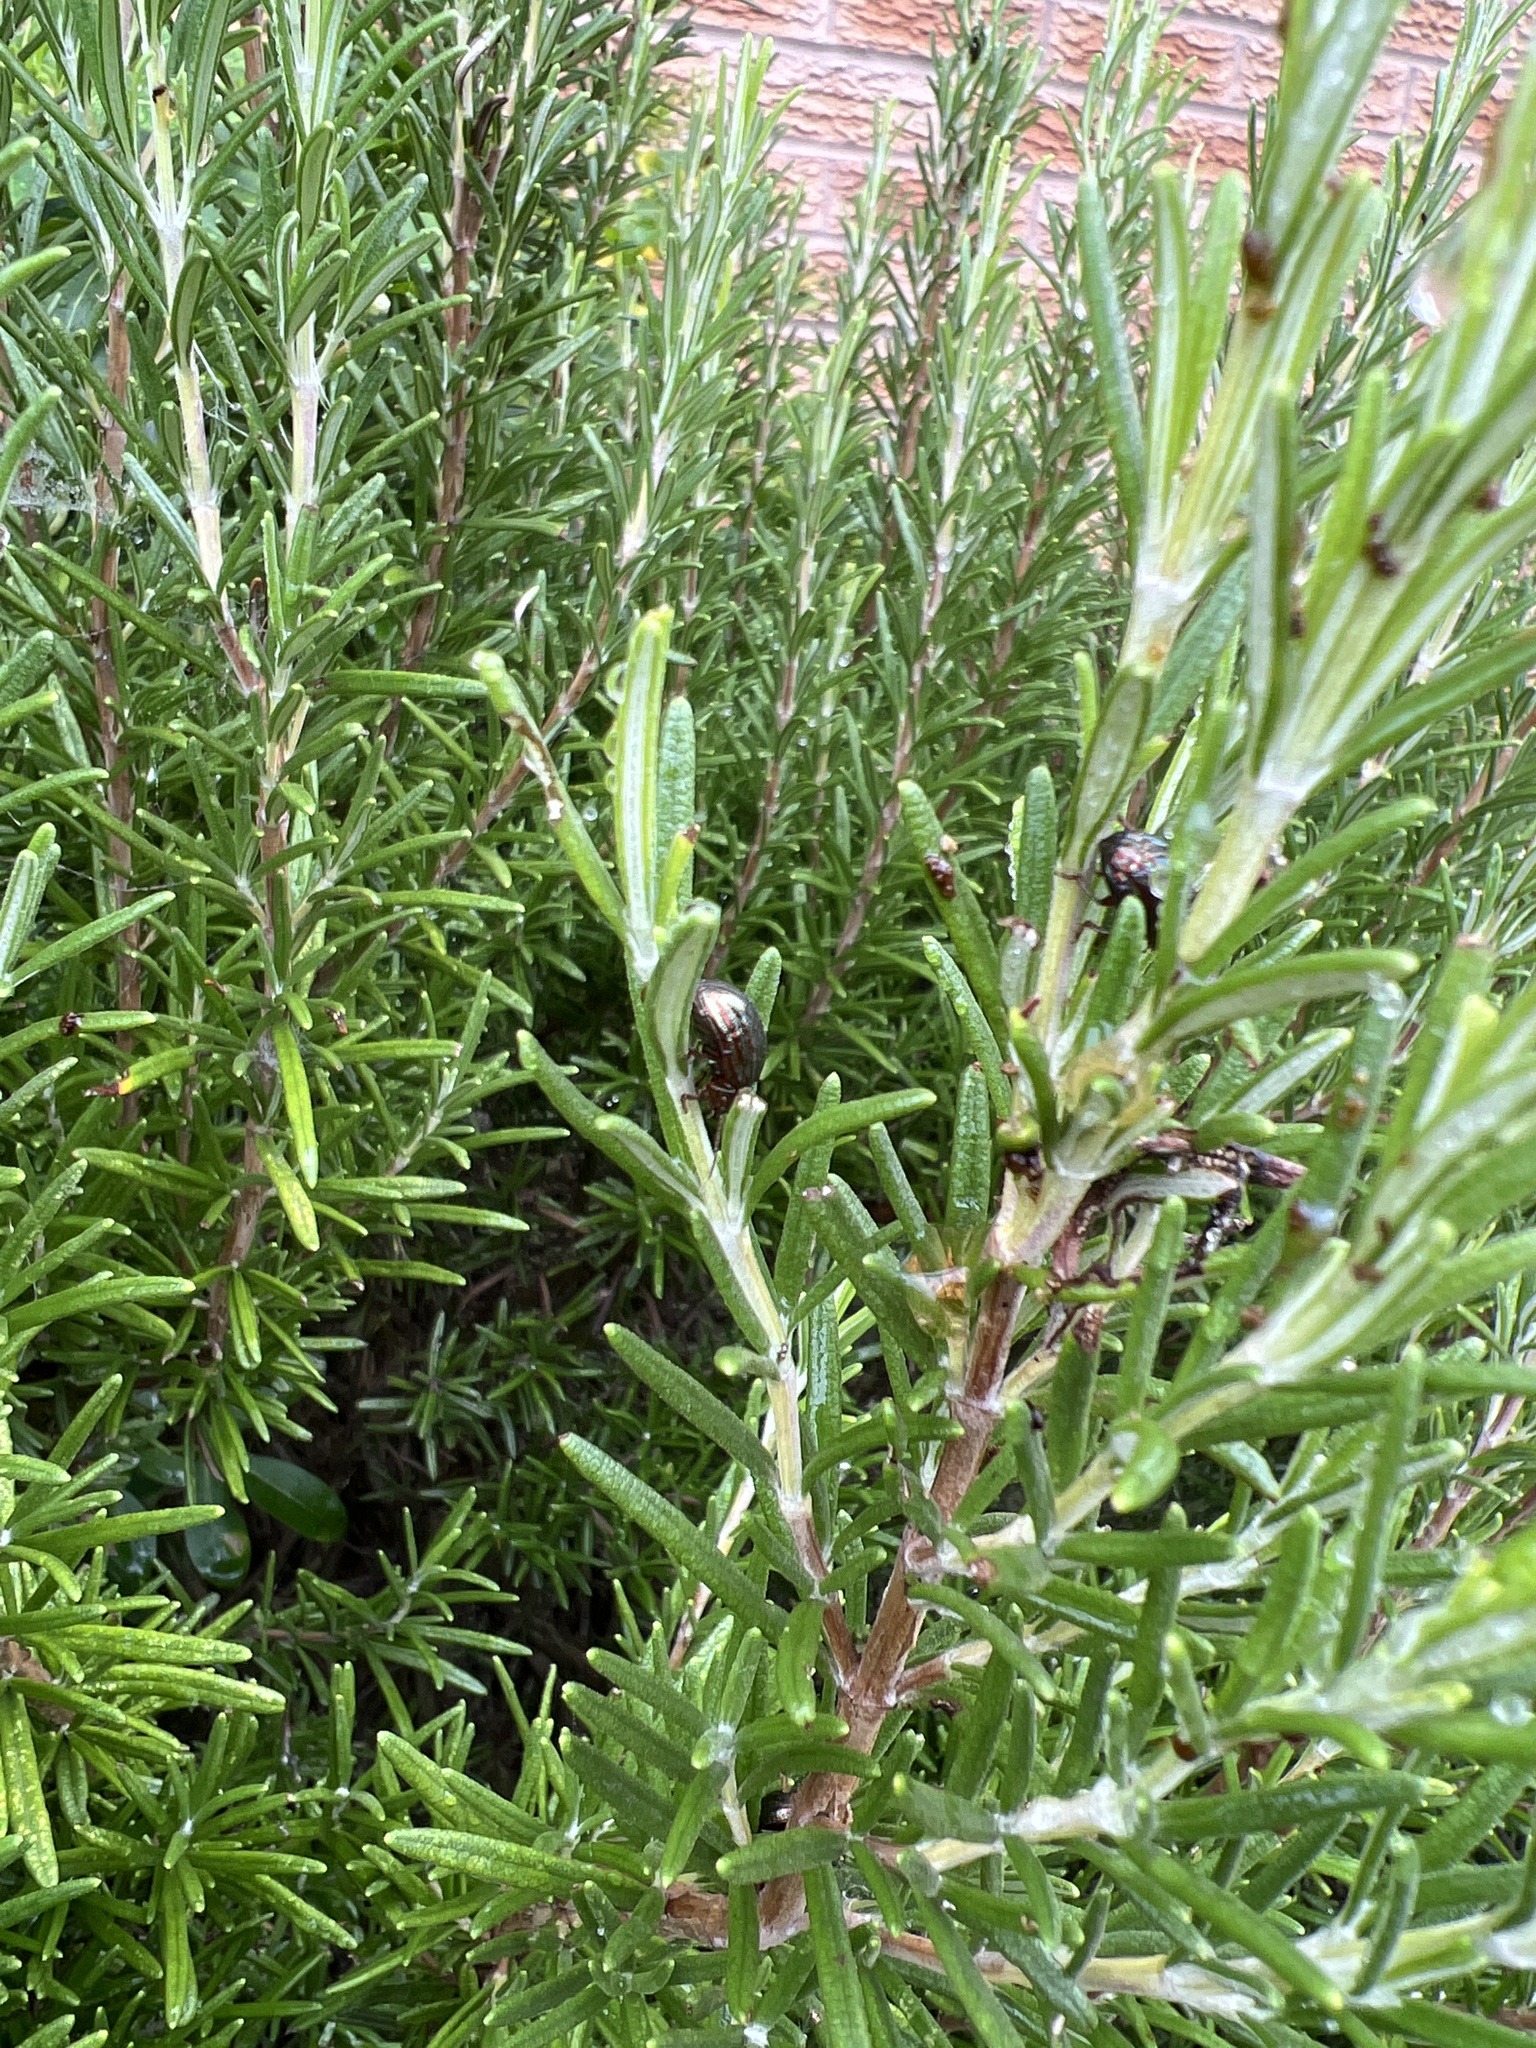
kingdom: Animalia
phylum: Arthropoda
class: Insecta
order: Coleoptera
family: Chrysomelidae
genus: Chrysolina
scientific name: Chrysolina americana
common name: Rosemary beetle
